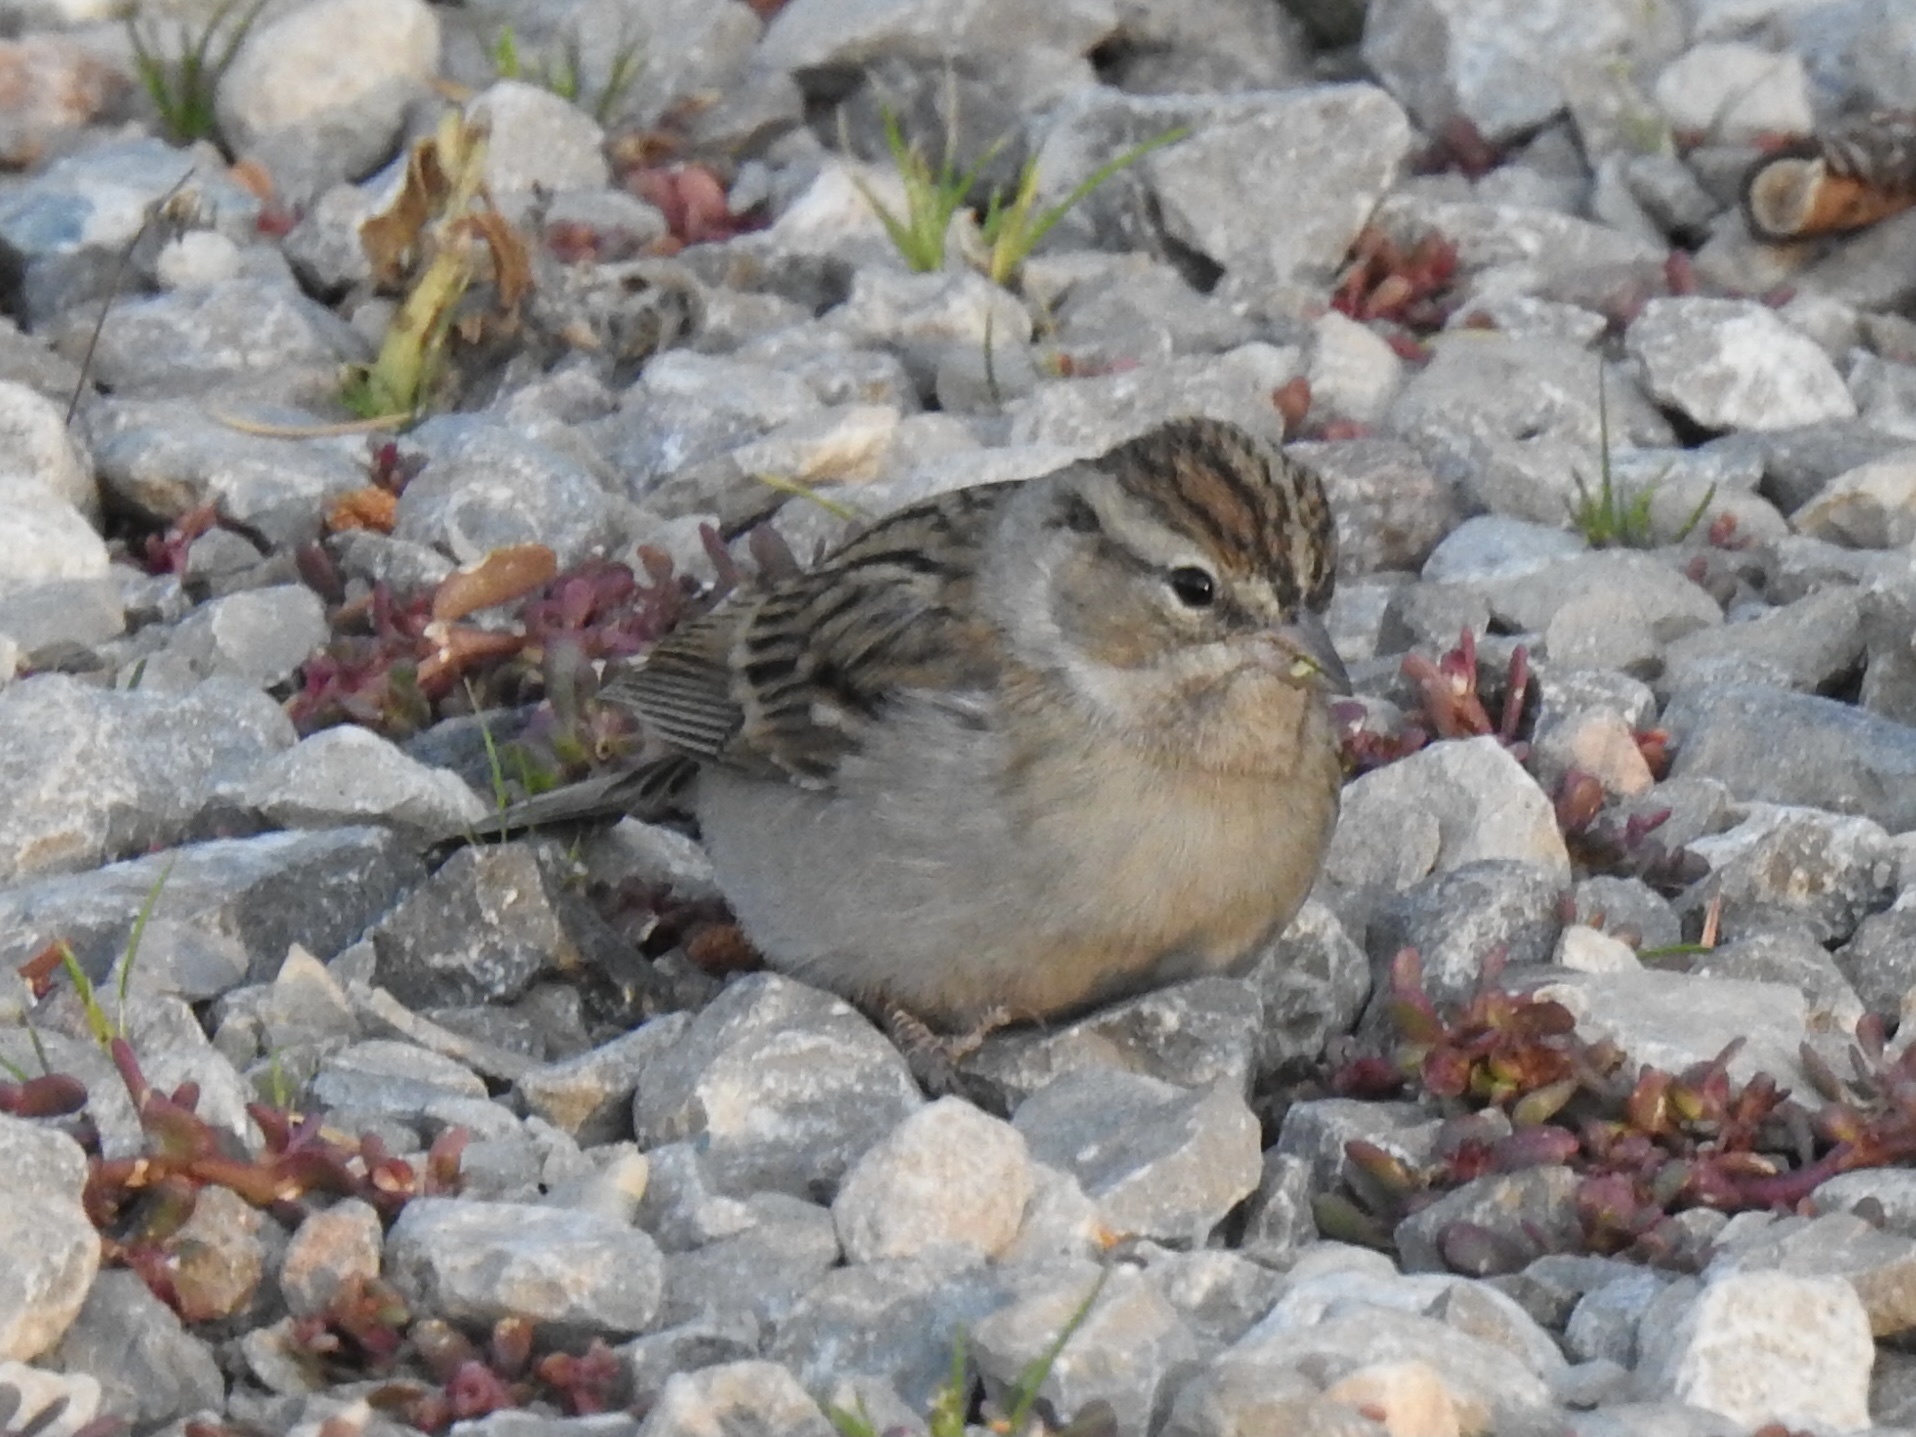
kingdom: Animalia
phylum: Chordata
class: Aves
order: Passeriformes
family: Passerellidae
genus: Spizella
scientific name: Spizella passerina
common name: Chipping sparrow
